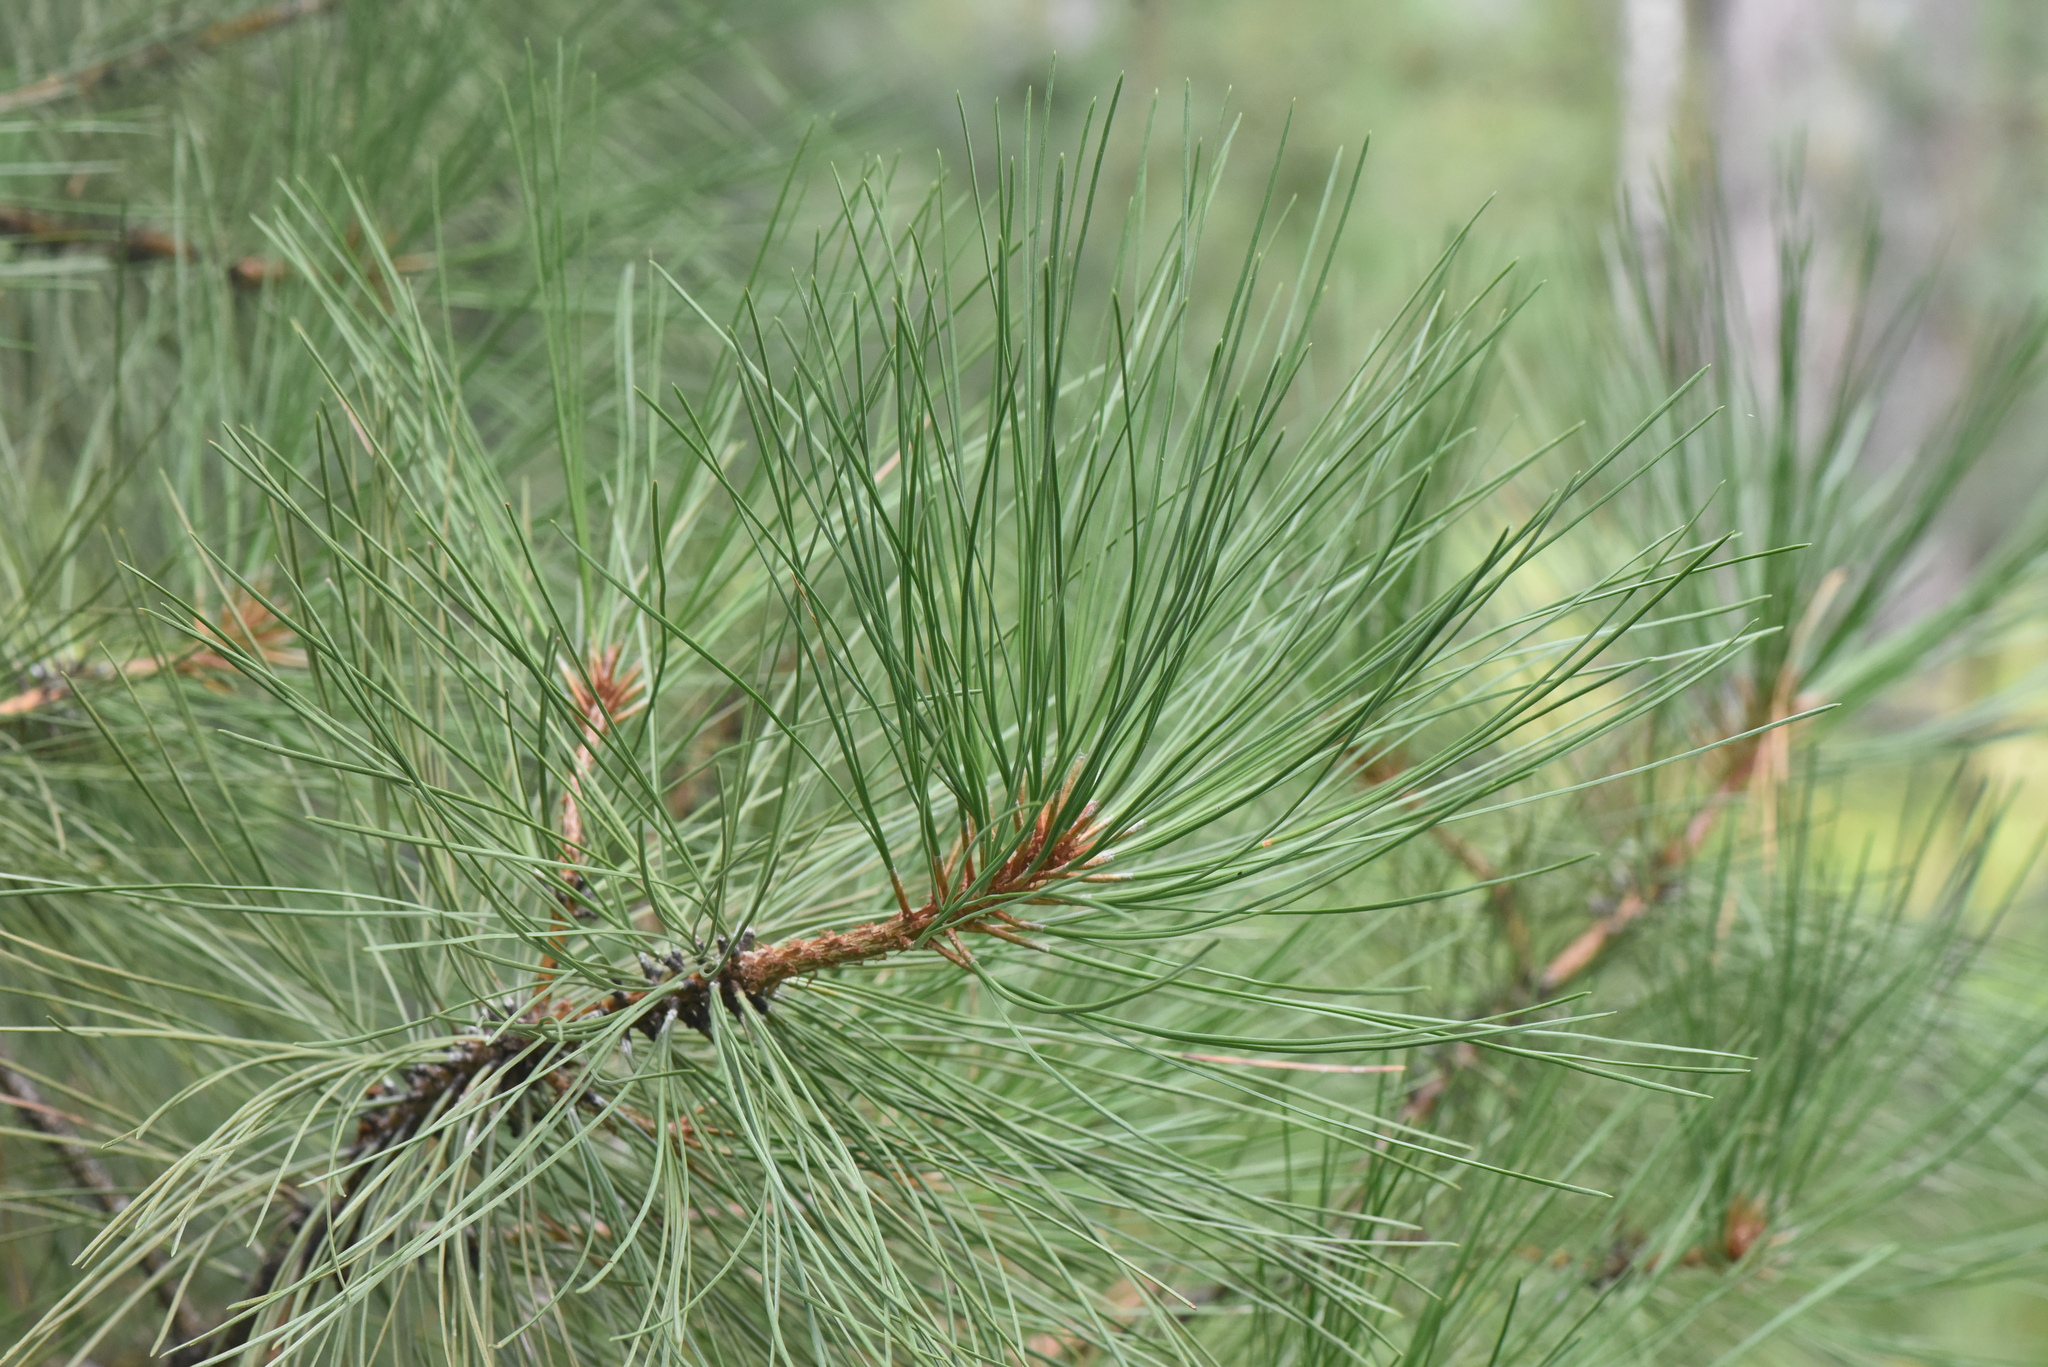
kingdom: Plantae
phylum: Tracheophyta
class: Pinopsida
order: Pinales
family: Pinaceae
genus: Pinus
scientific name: Pinus contorta
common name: Lodgepole pine
